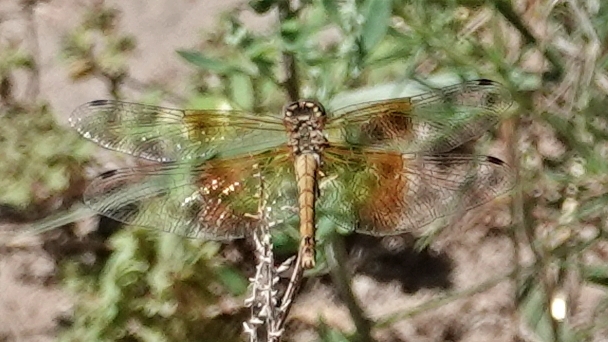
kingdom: Animalia
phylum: Arthropoda
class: Insecta
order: Odonata
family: Libellulidae
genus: Sympetrum
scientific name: Sympetrum semicinctum
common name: Band-winged meadowhawk
